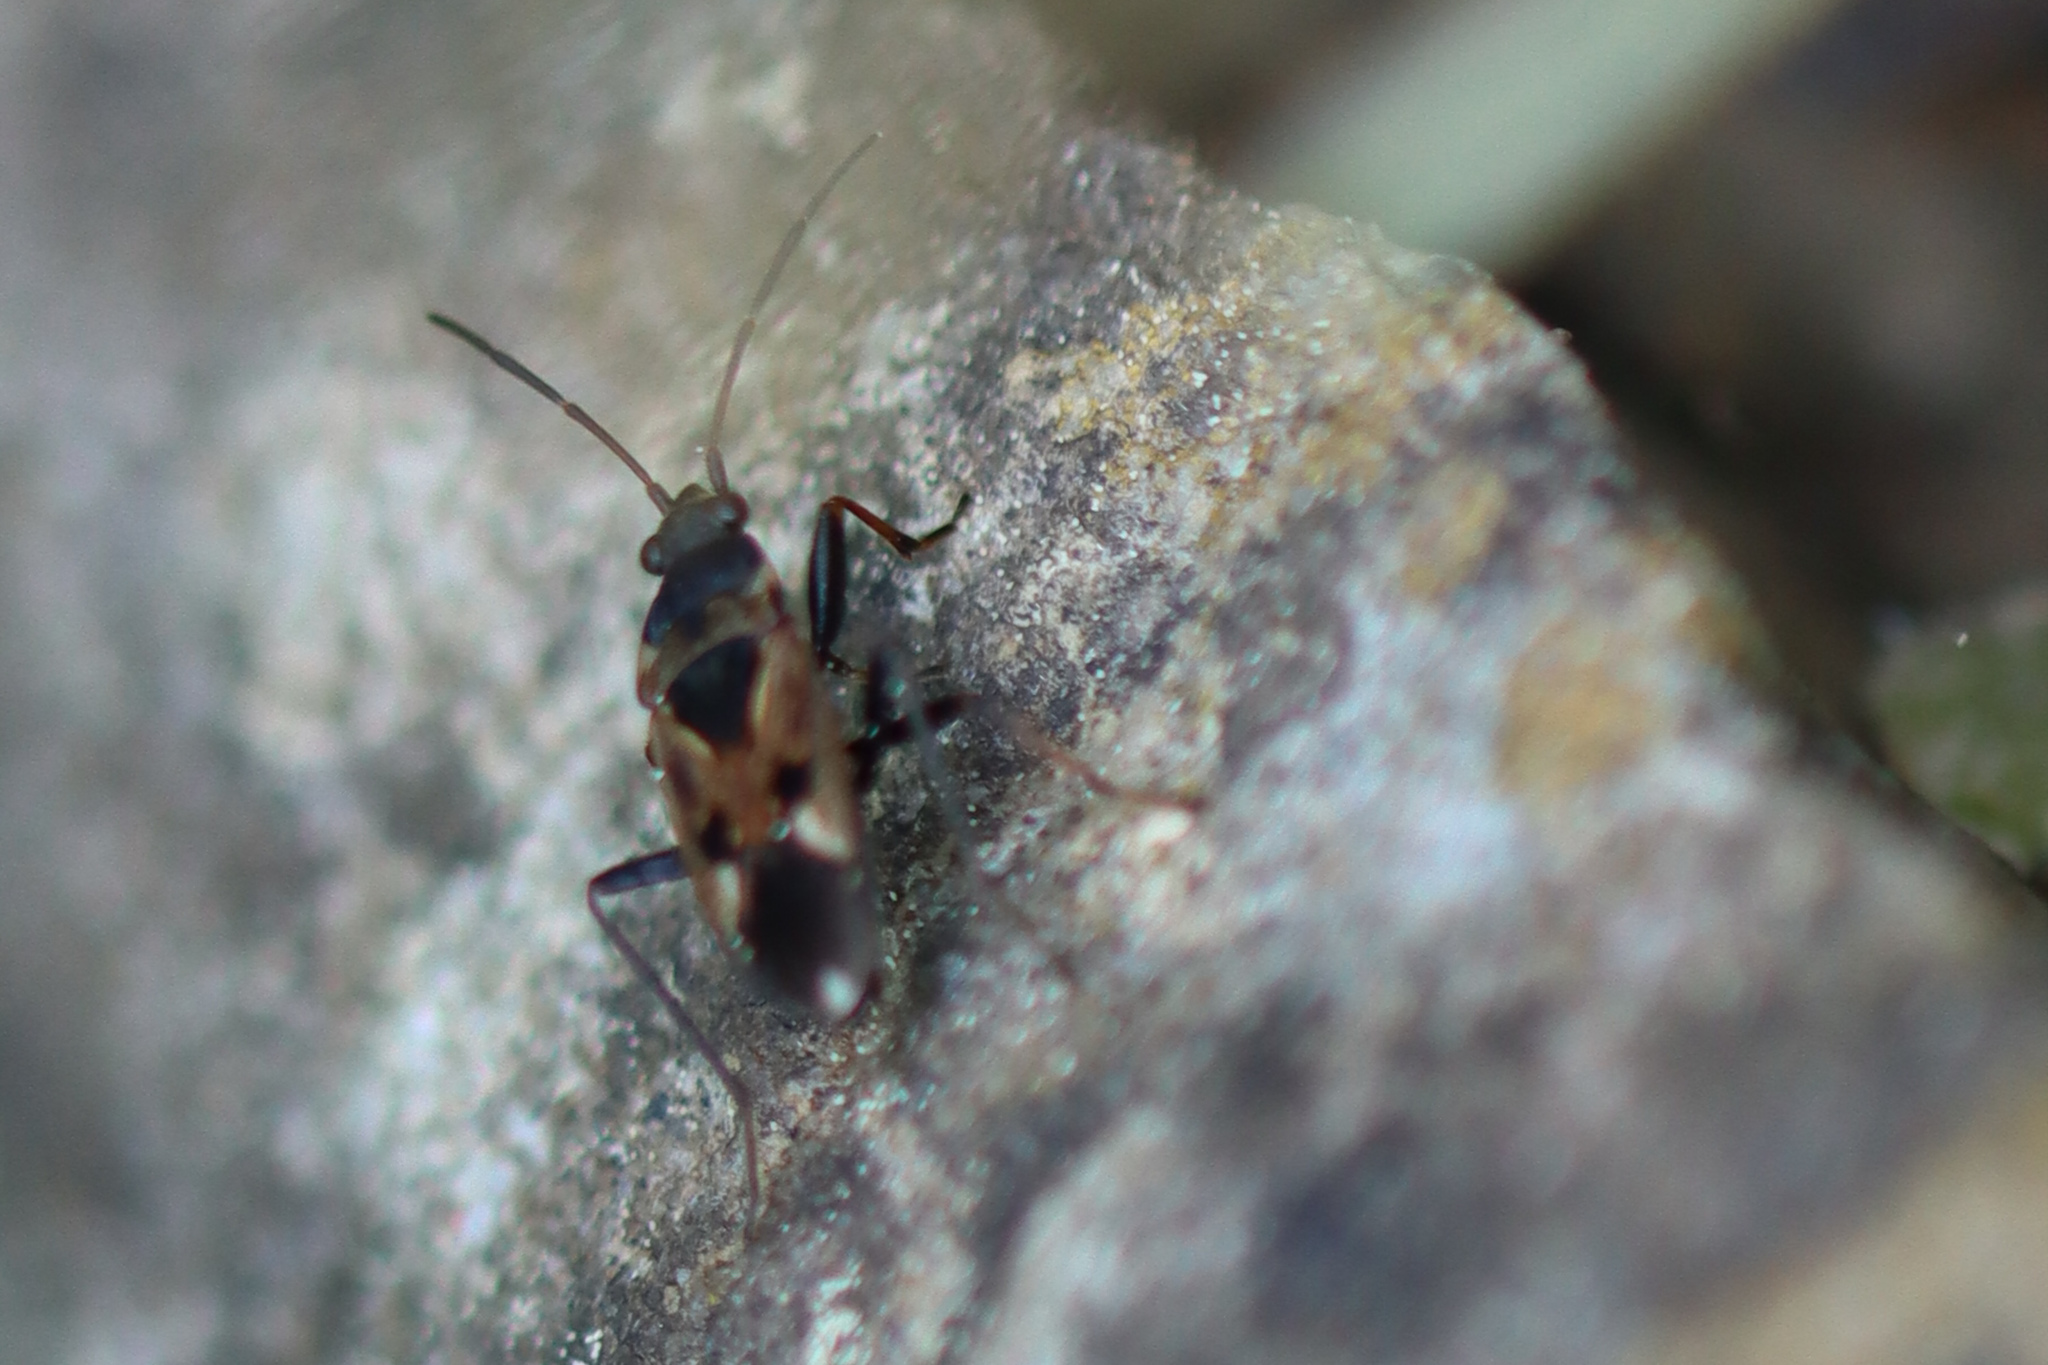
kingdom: Animalia
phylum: Arthropoda
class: Insecta
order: Hemiptera
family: Rhyparochromidae
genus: Rhyparochromus
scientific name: Rhyparochromus vulgaris
